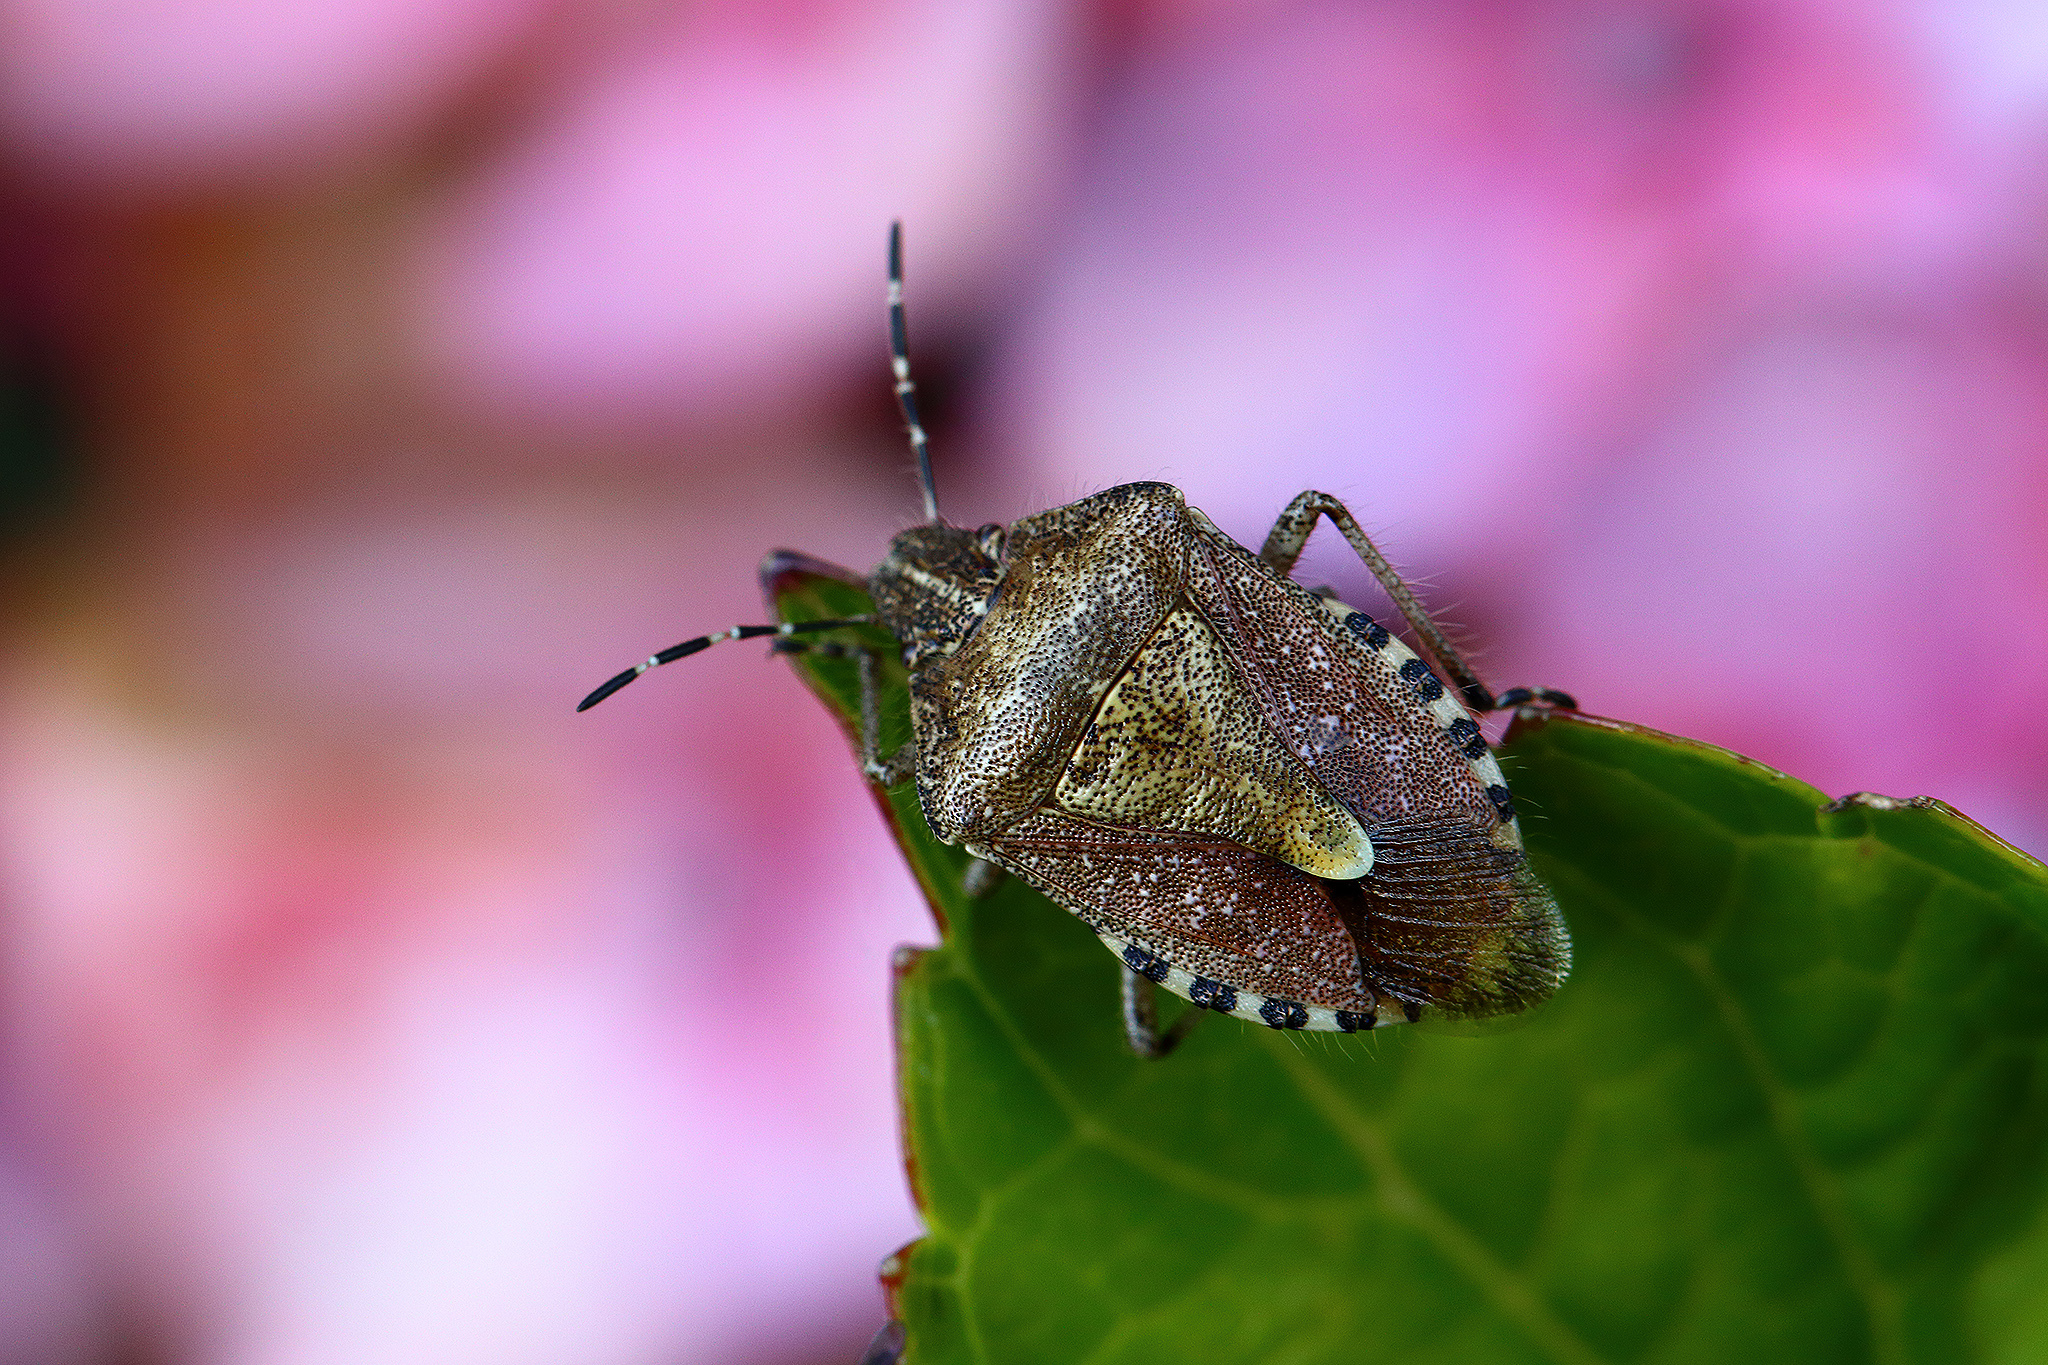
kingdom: Animalia
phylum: Arthropoda
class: Insecta
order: Hemiptera
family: Pentatomidae
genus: Dolycoris
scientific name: Dolycoris baccarum
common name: Sloe bug
